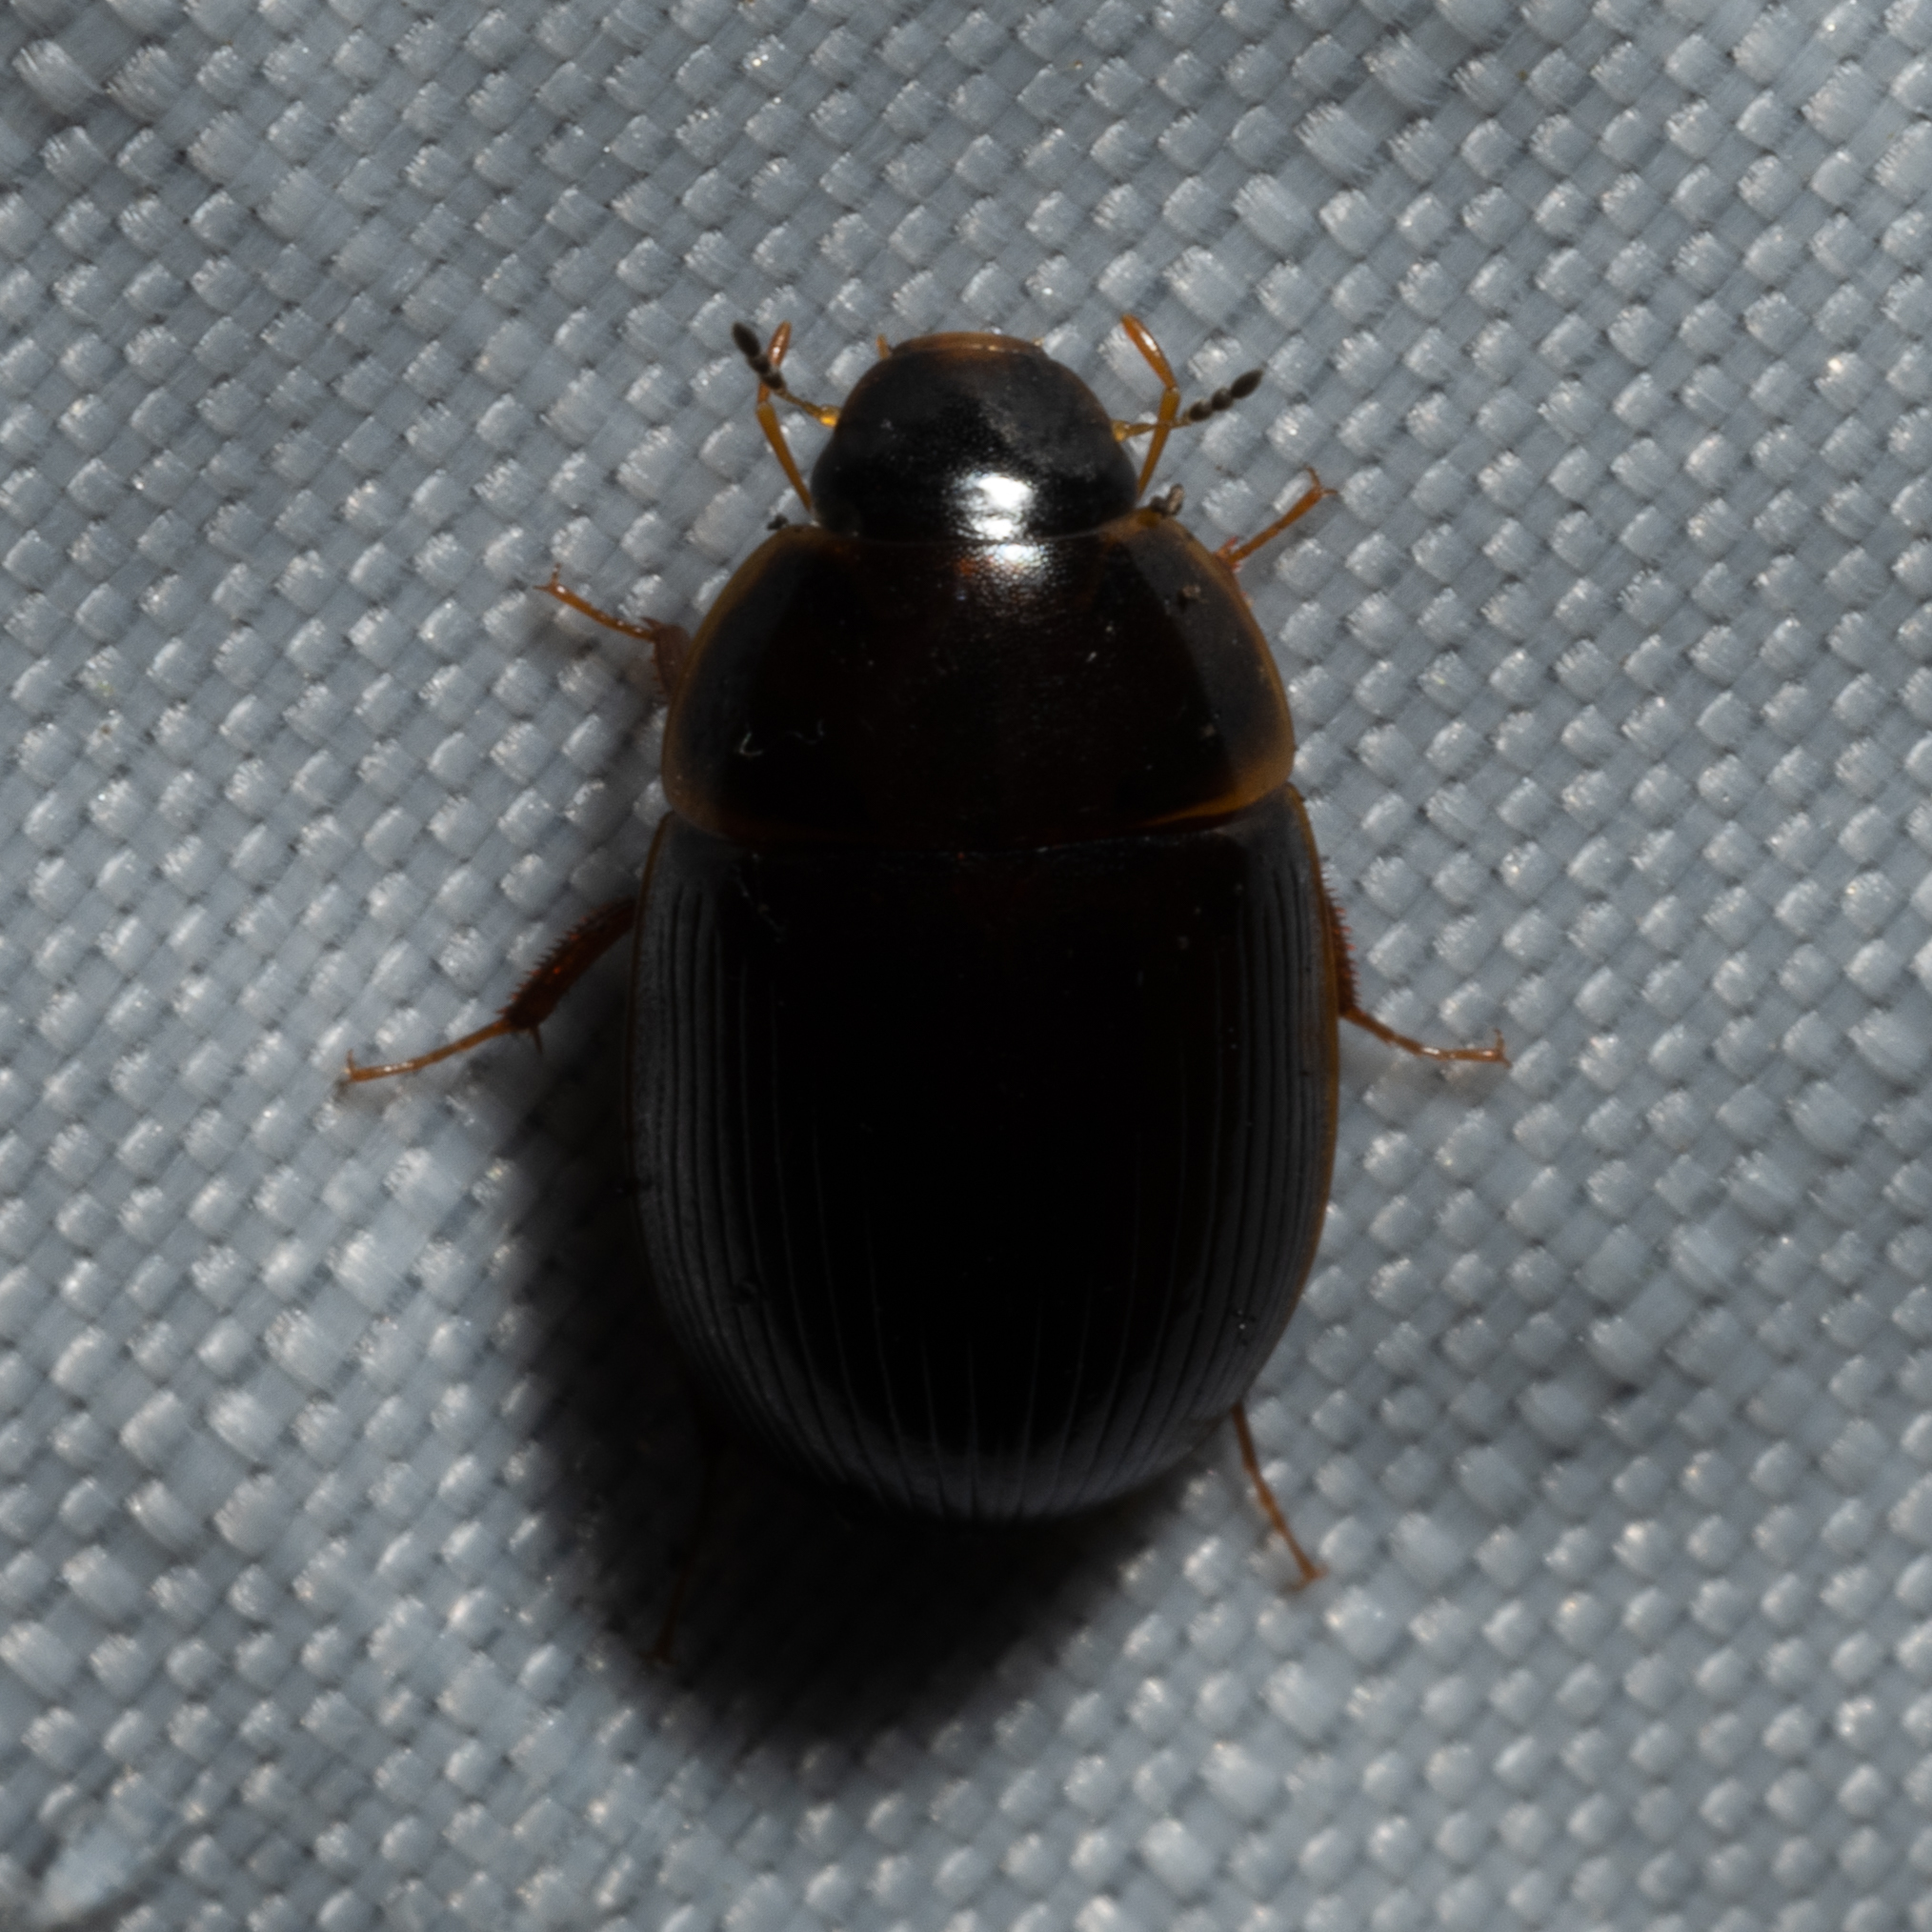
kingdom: Animalia
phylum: Arthropoda
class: Insecta
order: Coleoptera
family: Hydrophilidae
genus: Cymbiodyta
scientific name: Cymbiodyta bifida
